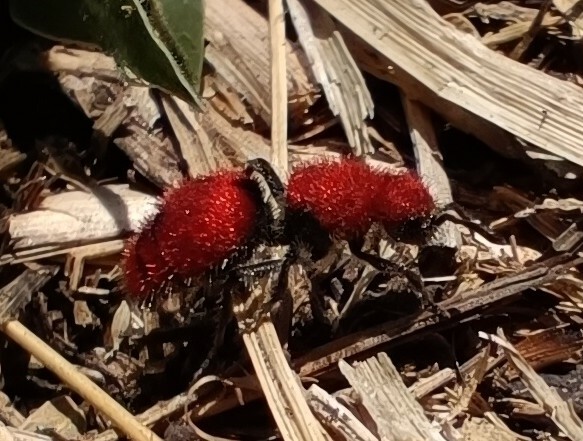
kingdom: Animalia
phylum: Arthropoda
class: Insecta
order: Hymenoptera
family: Mutillidae
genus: Dasymutilla
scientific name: Dasymutilla
